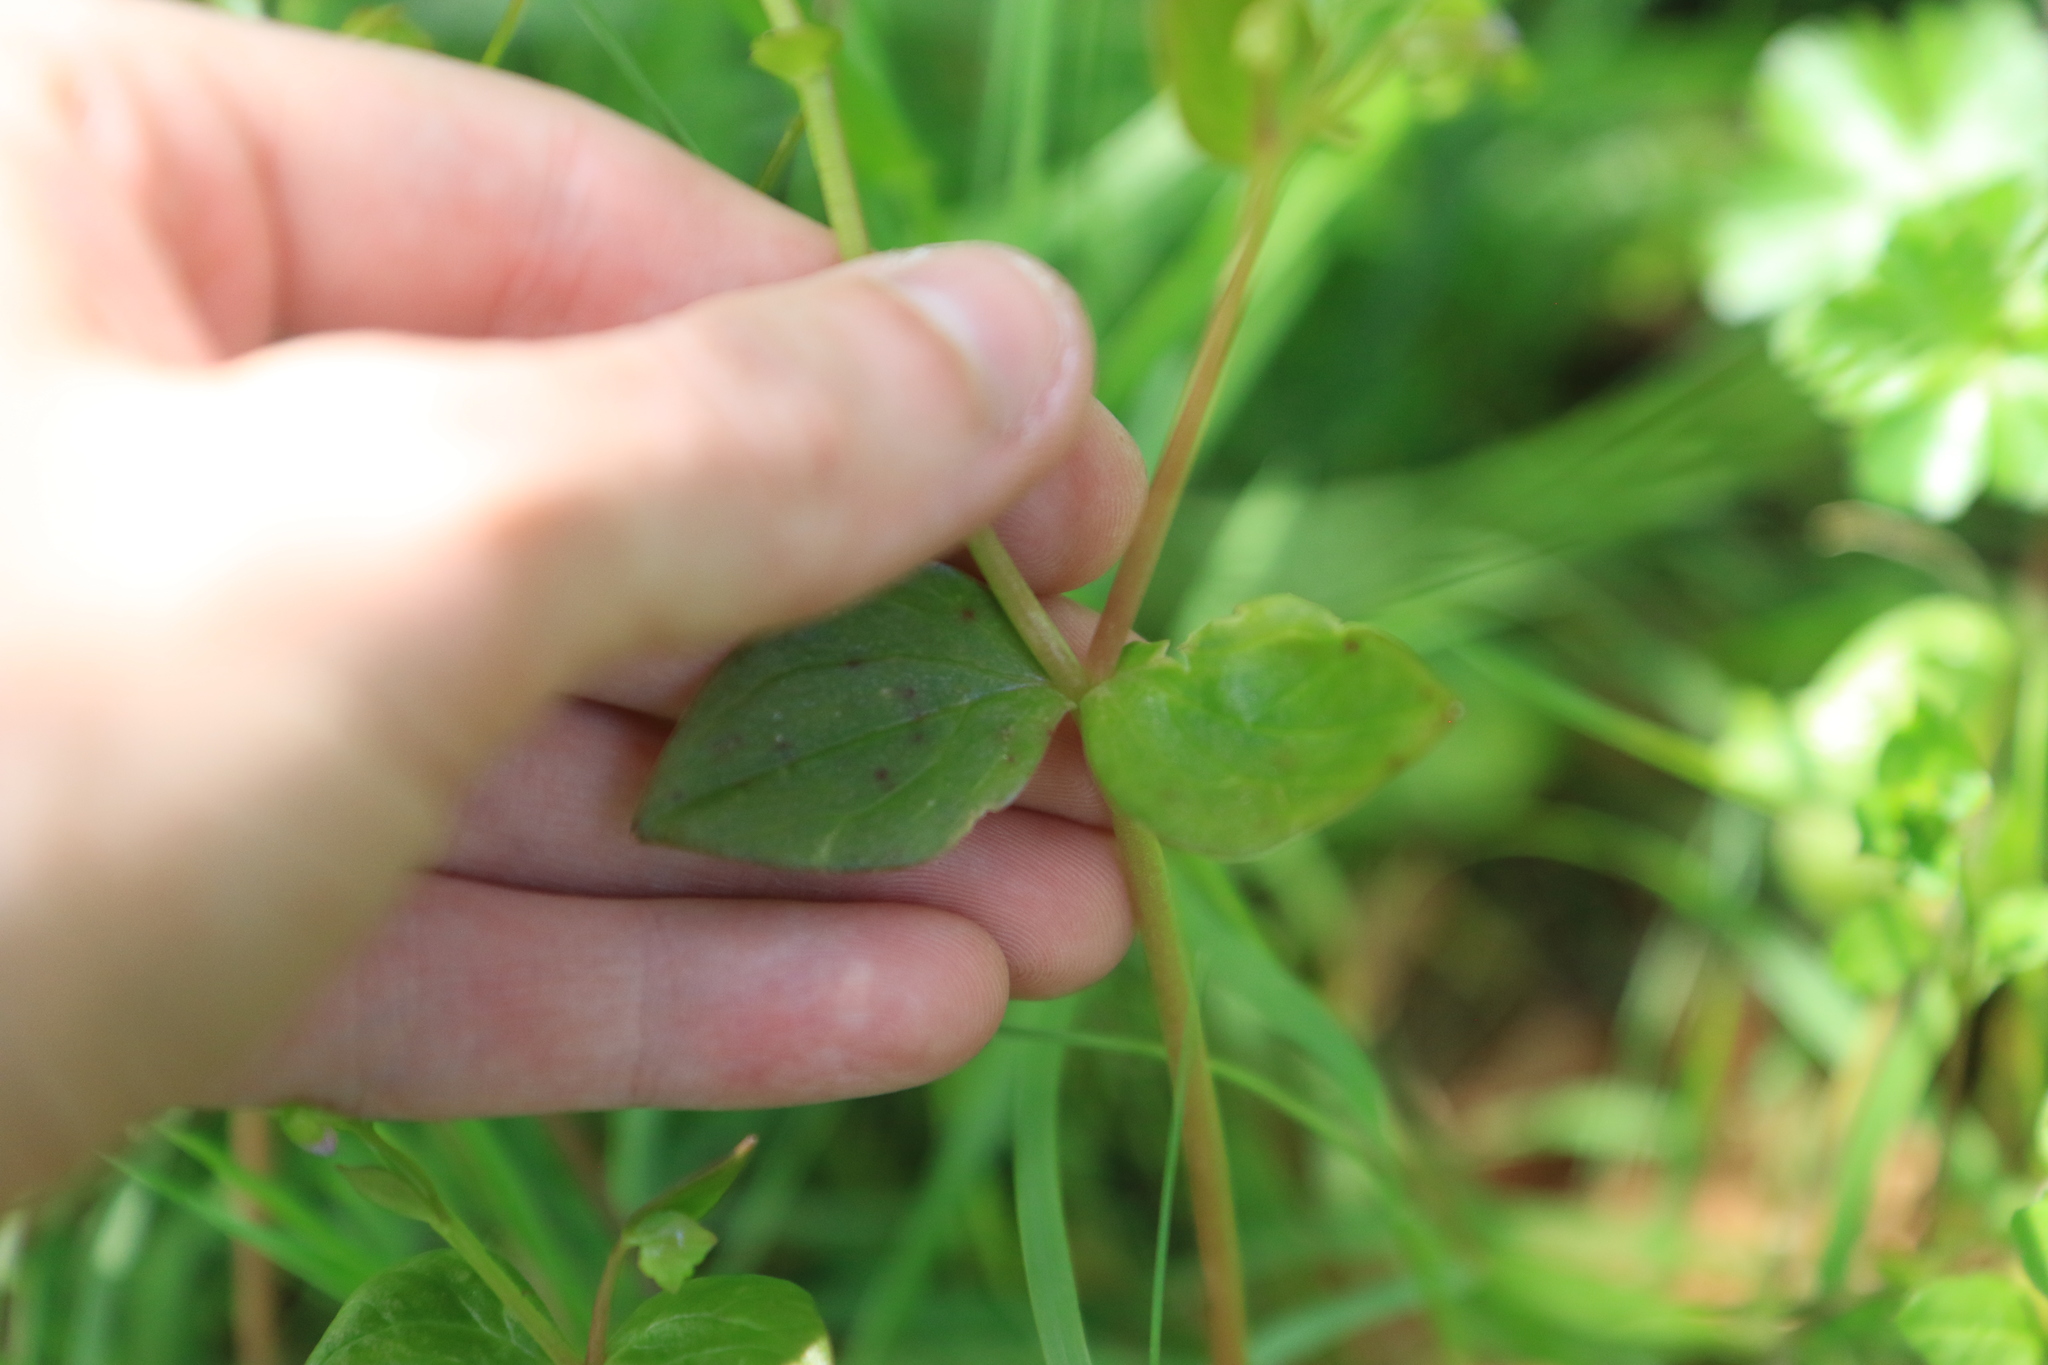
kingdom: Plantae
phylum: Tracheophyta
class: Magnoliopsida
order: Caryophyllales
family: Montiaceae
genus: Claytonia
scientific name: Claytonia sibirica
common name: Pink purslane
